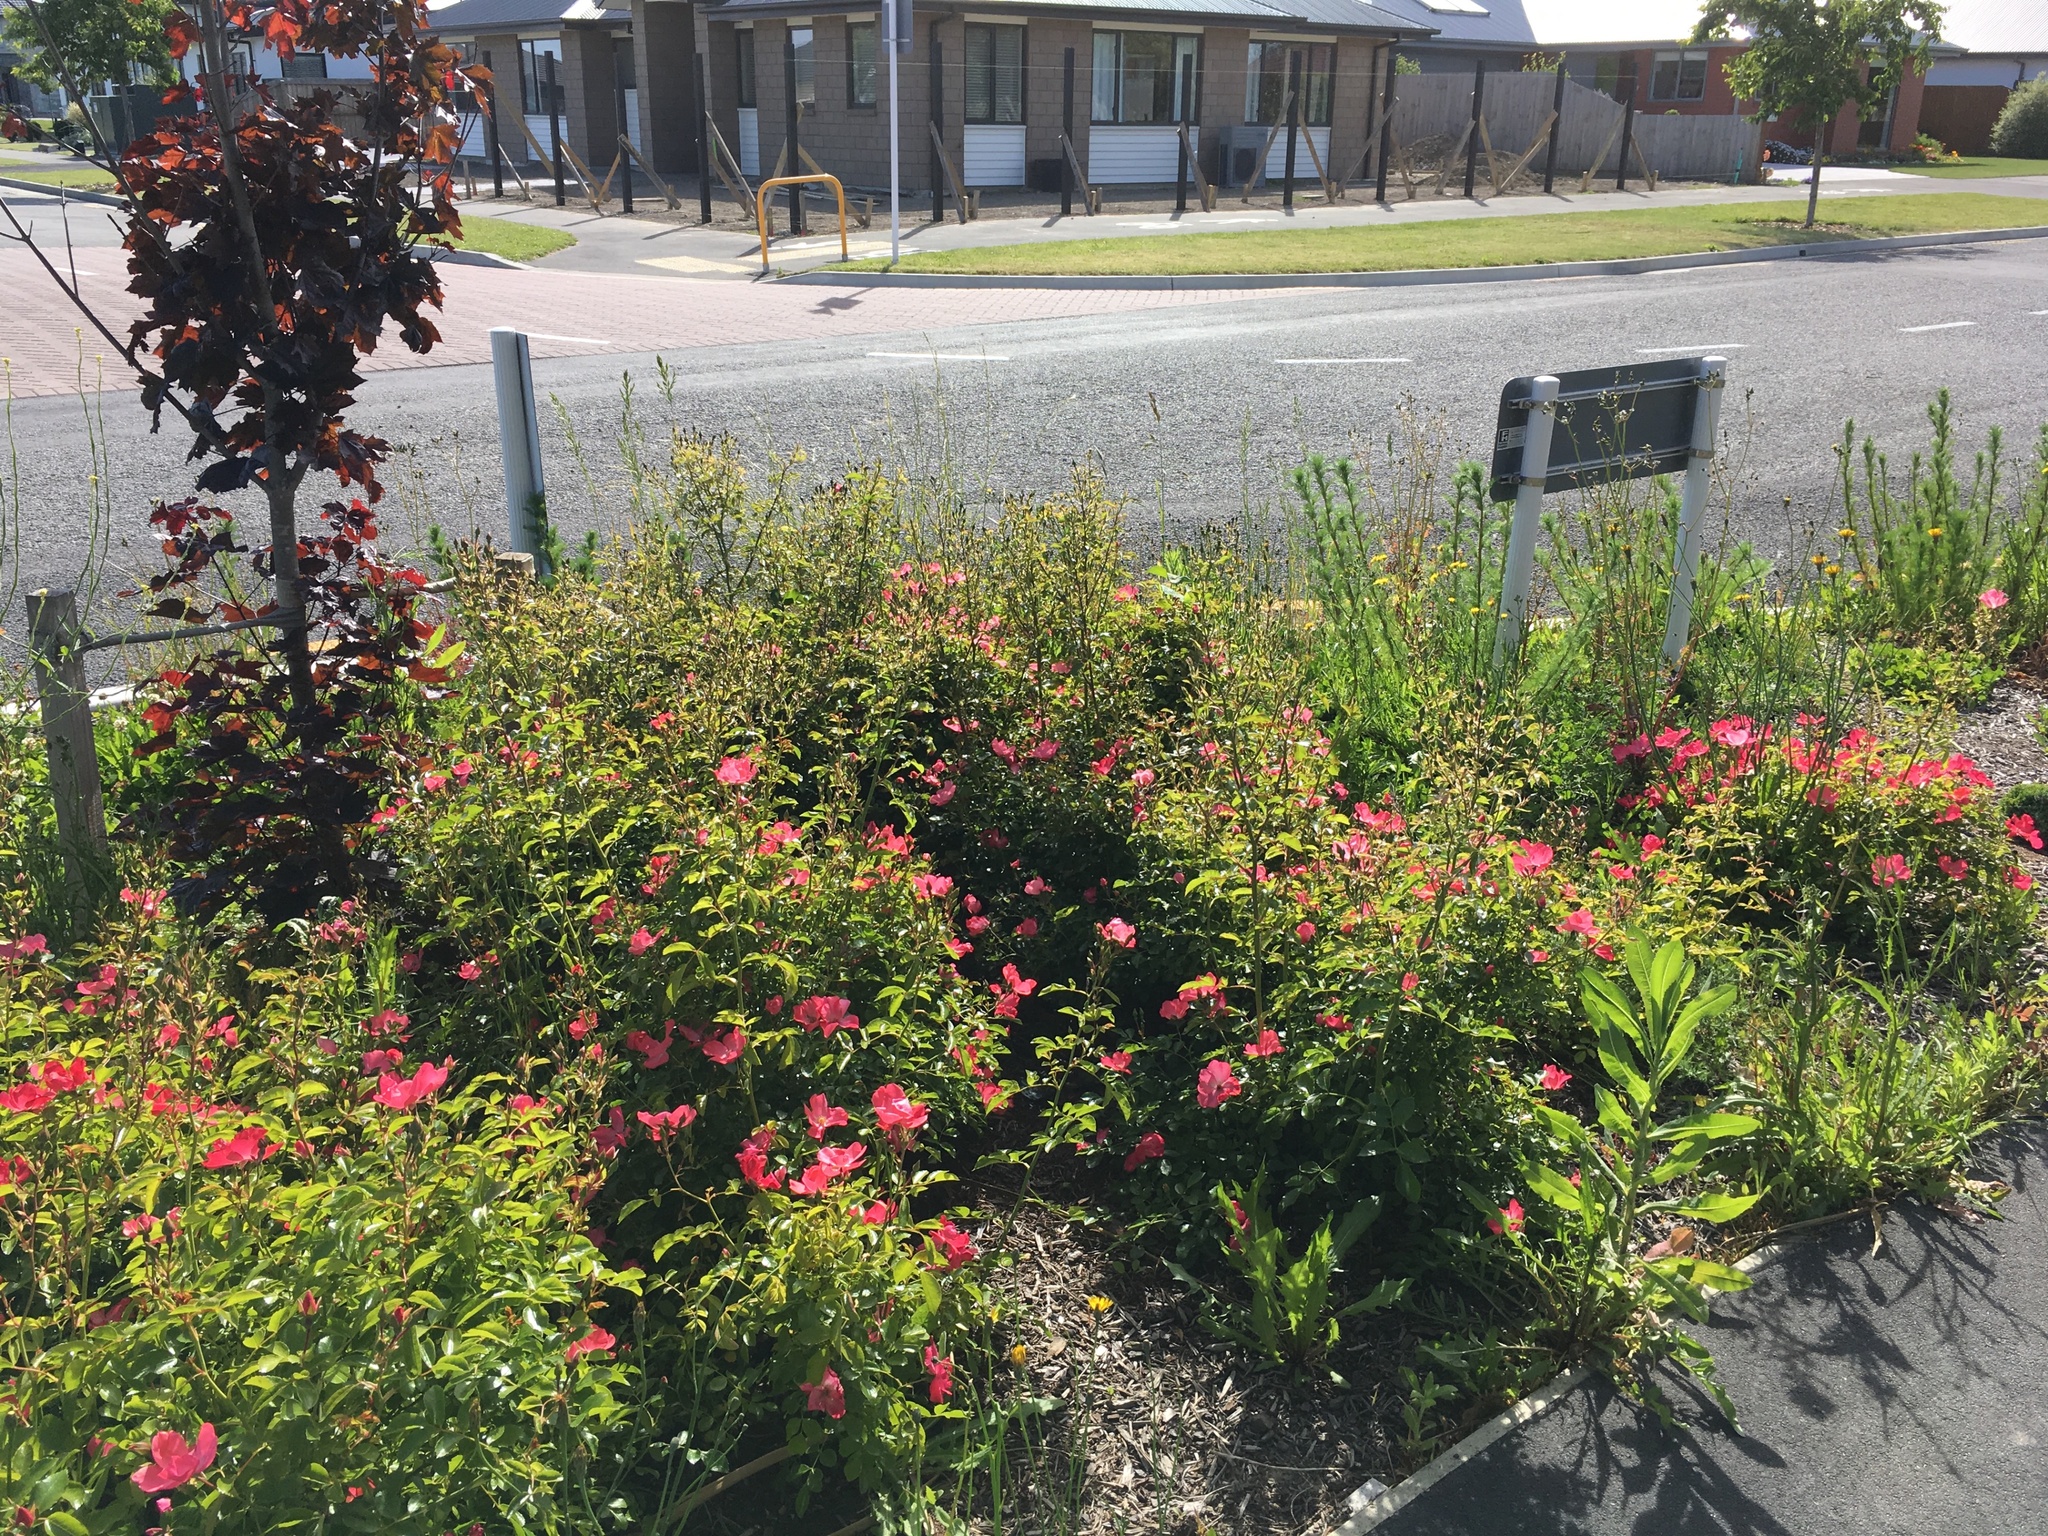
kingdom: Plantae
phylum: Tracheophyta
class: Magnoliopsida
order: Asterales
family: Asteraceae
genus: Crepis
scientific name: Crepis capillaris
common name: Smooth hawksbeard
